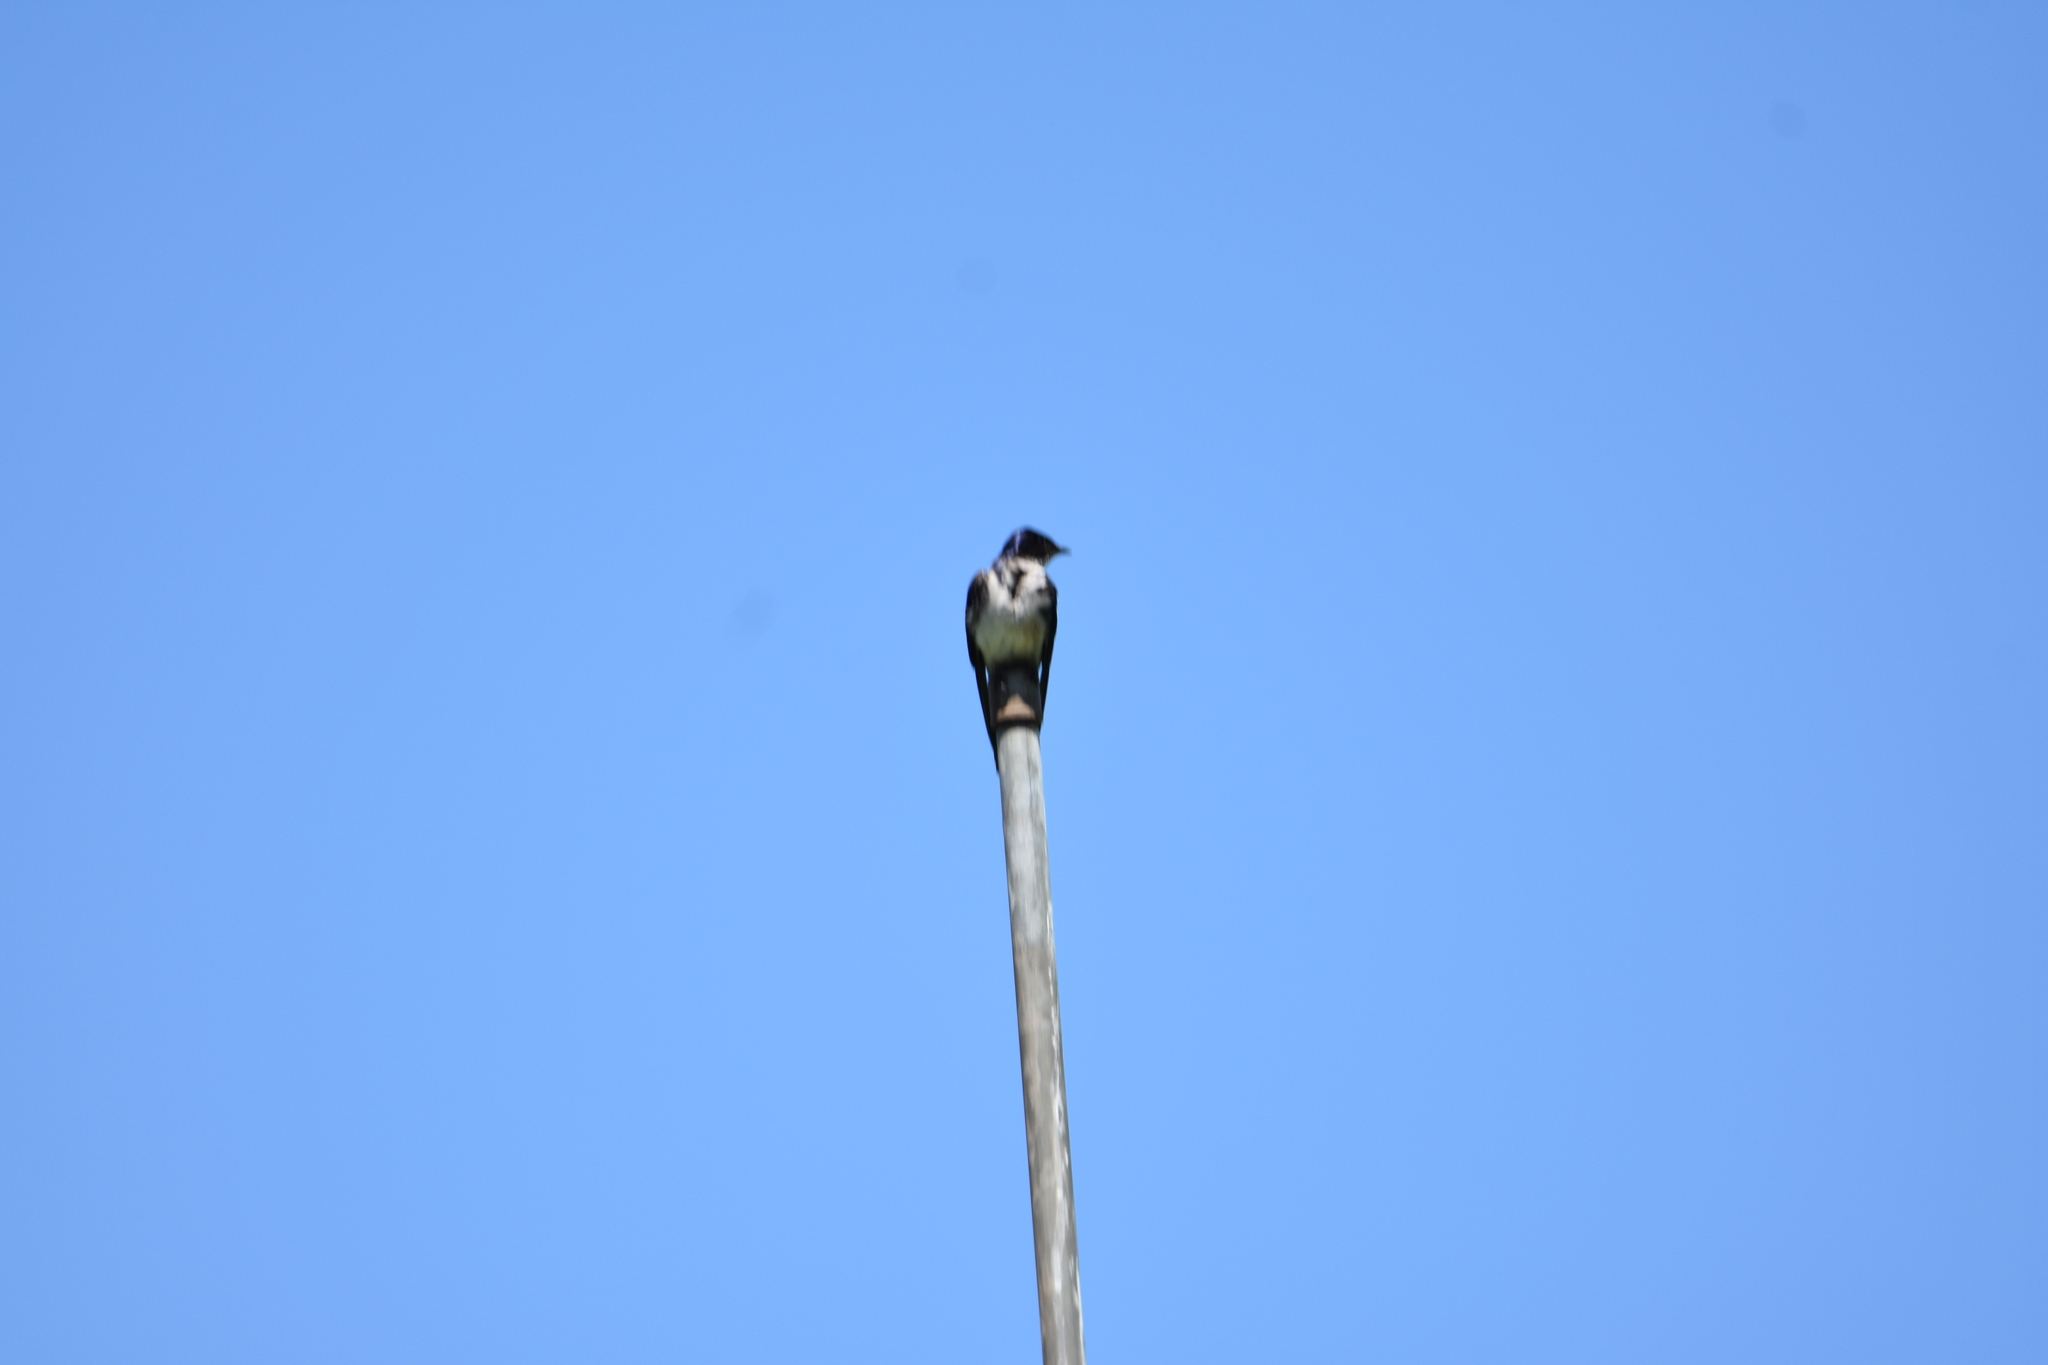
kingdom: Animalia
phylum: Chordata
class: Aves
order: Passeriformes
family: Hirundinidae
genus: Progne
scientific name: Progne chalybea
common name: Grey-breasted martin
